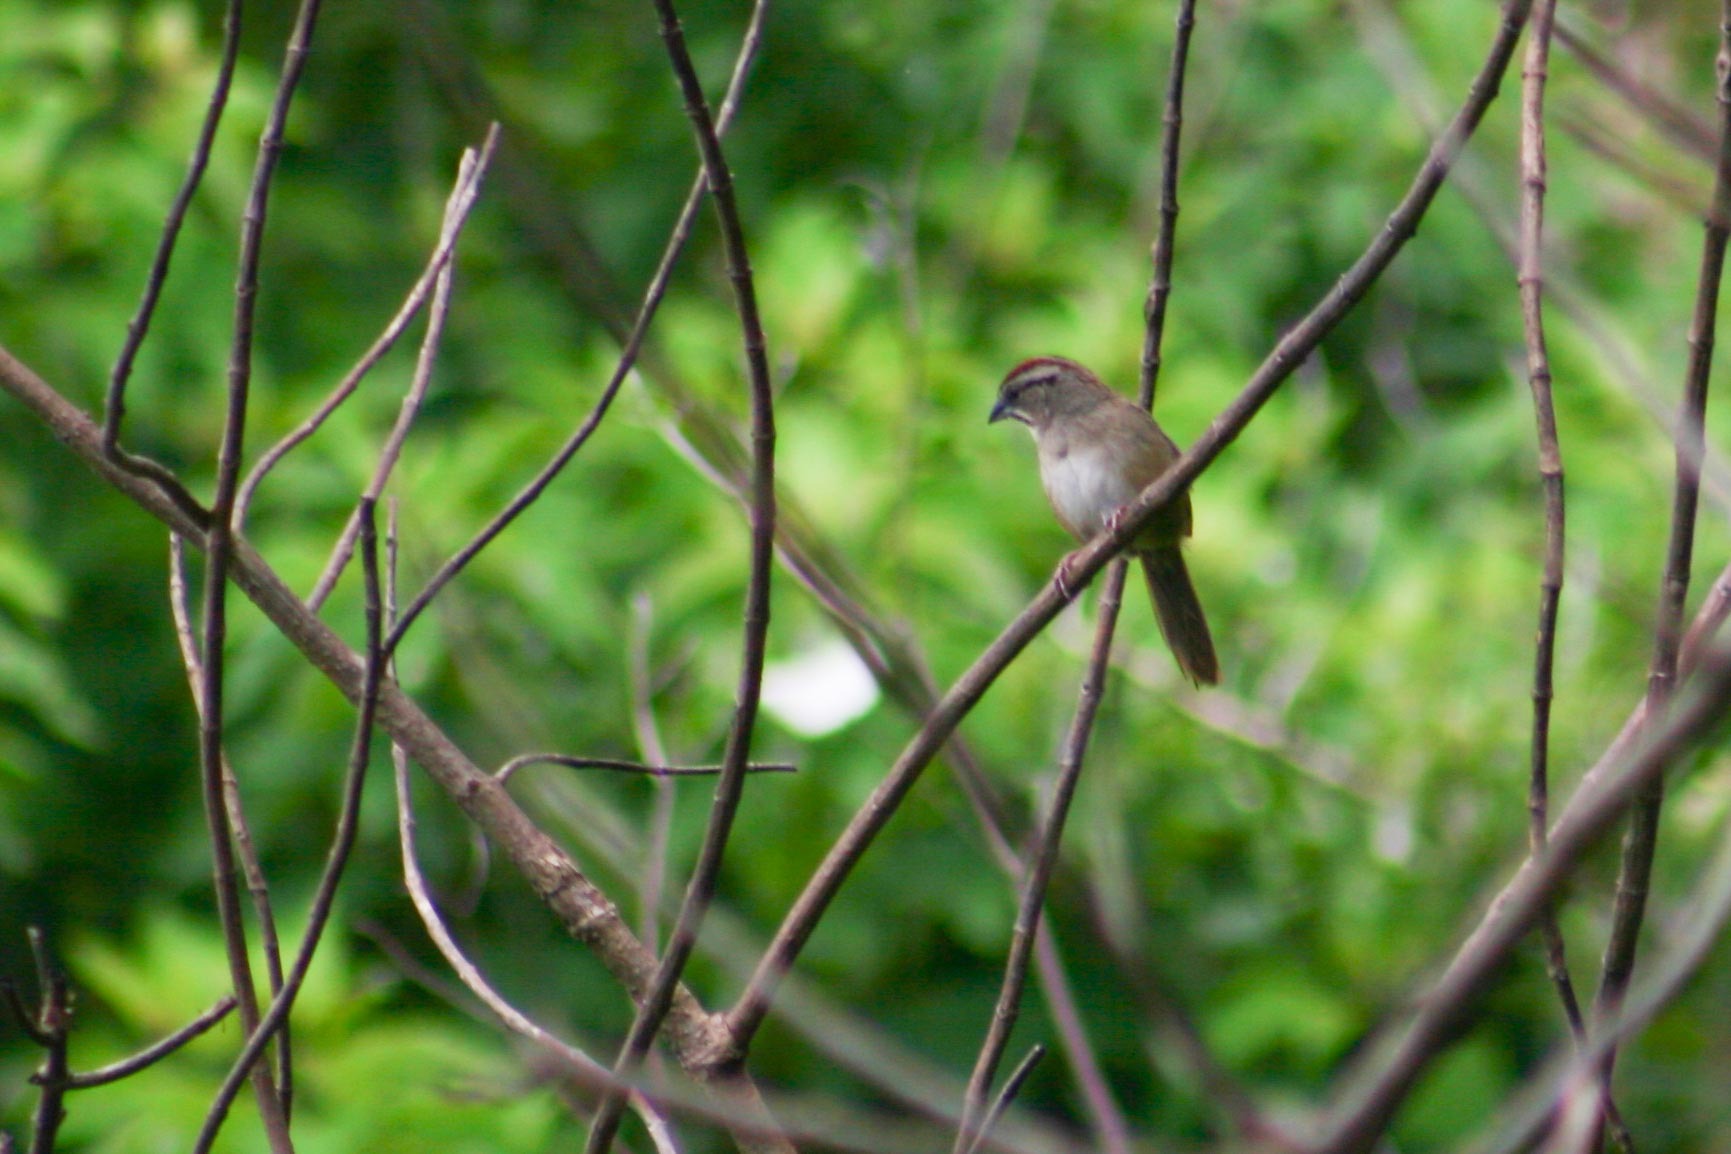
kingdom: Animalia
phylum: Chordata
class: Aves
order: Passeriformes
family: Passerellidae
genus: Aimophila
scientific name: Aimophila rufescens
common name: Rusty sparrow
